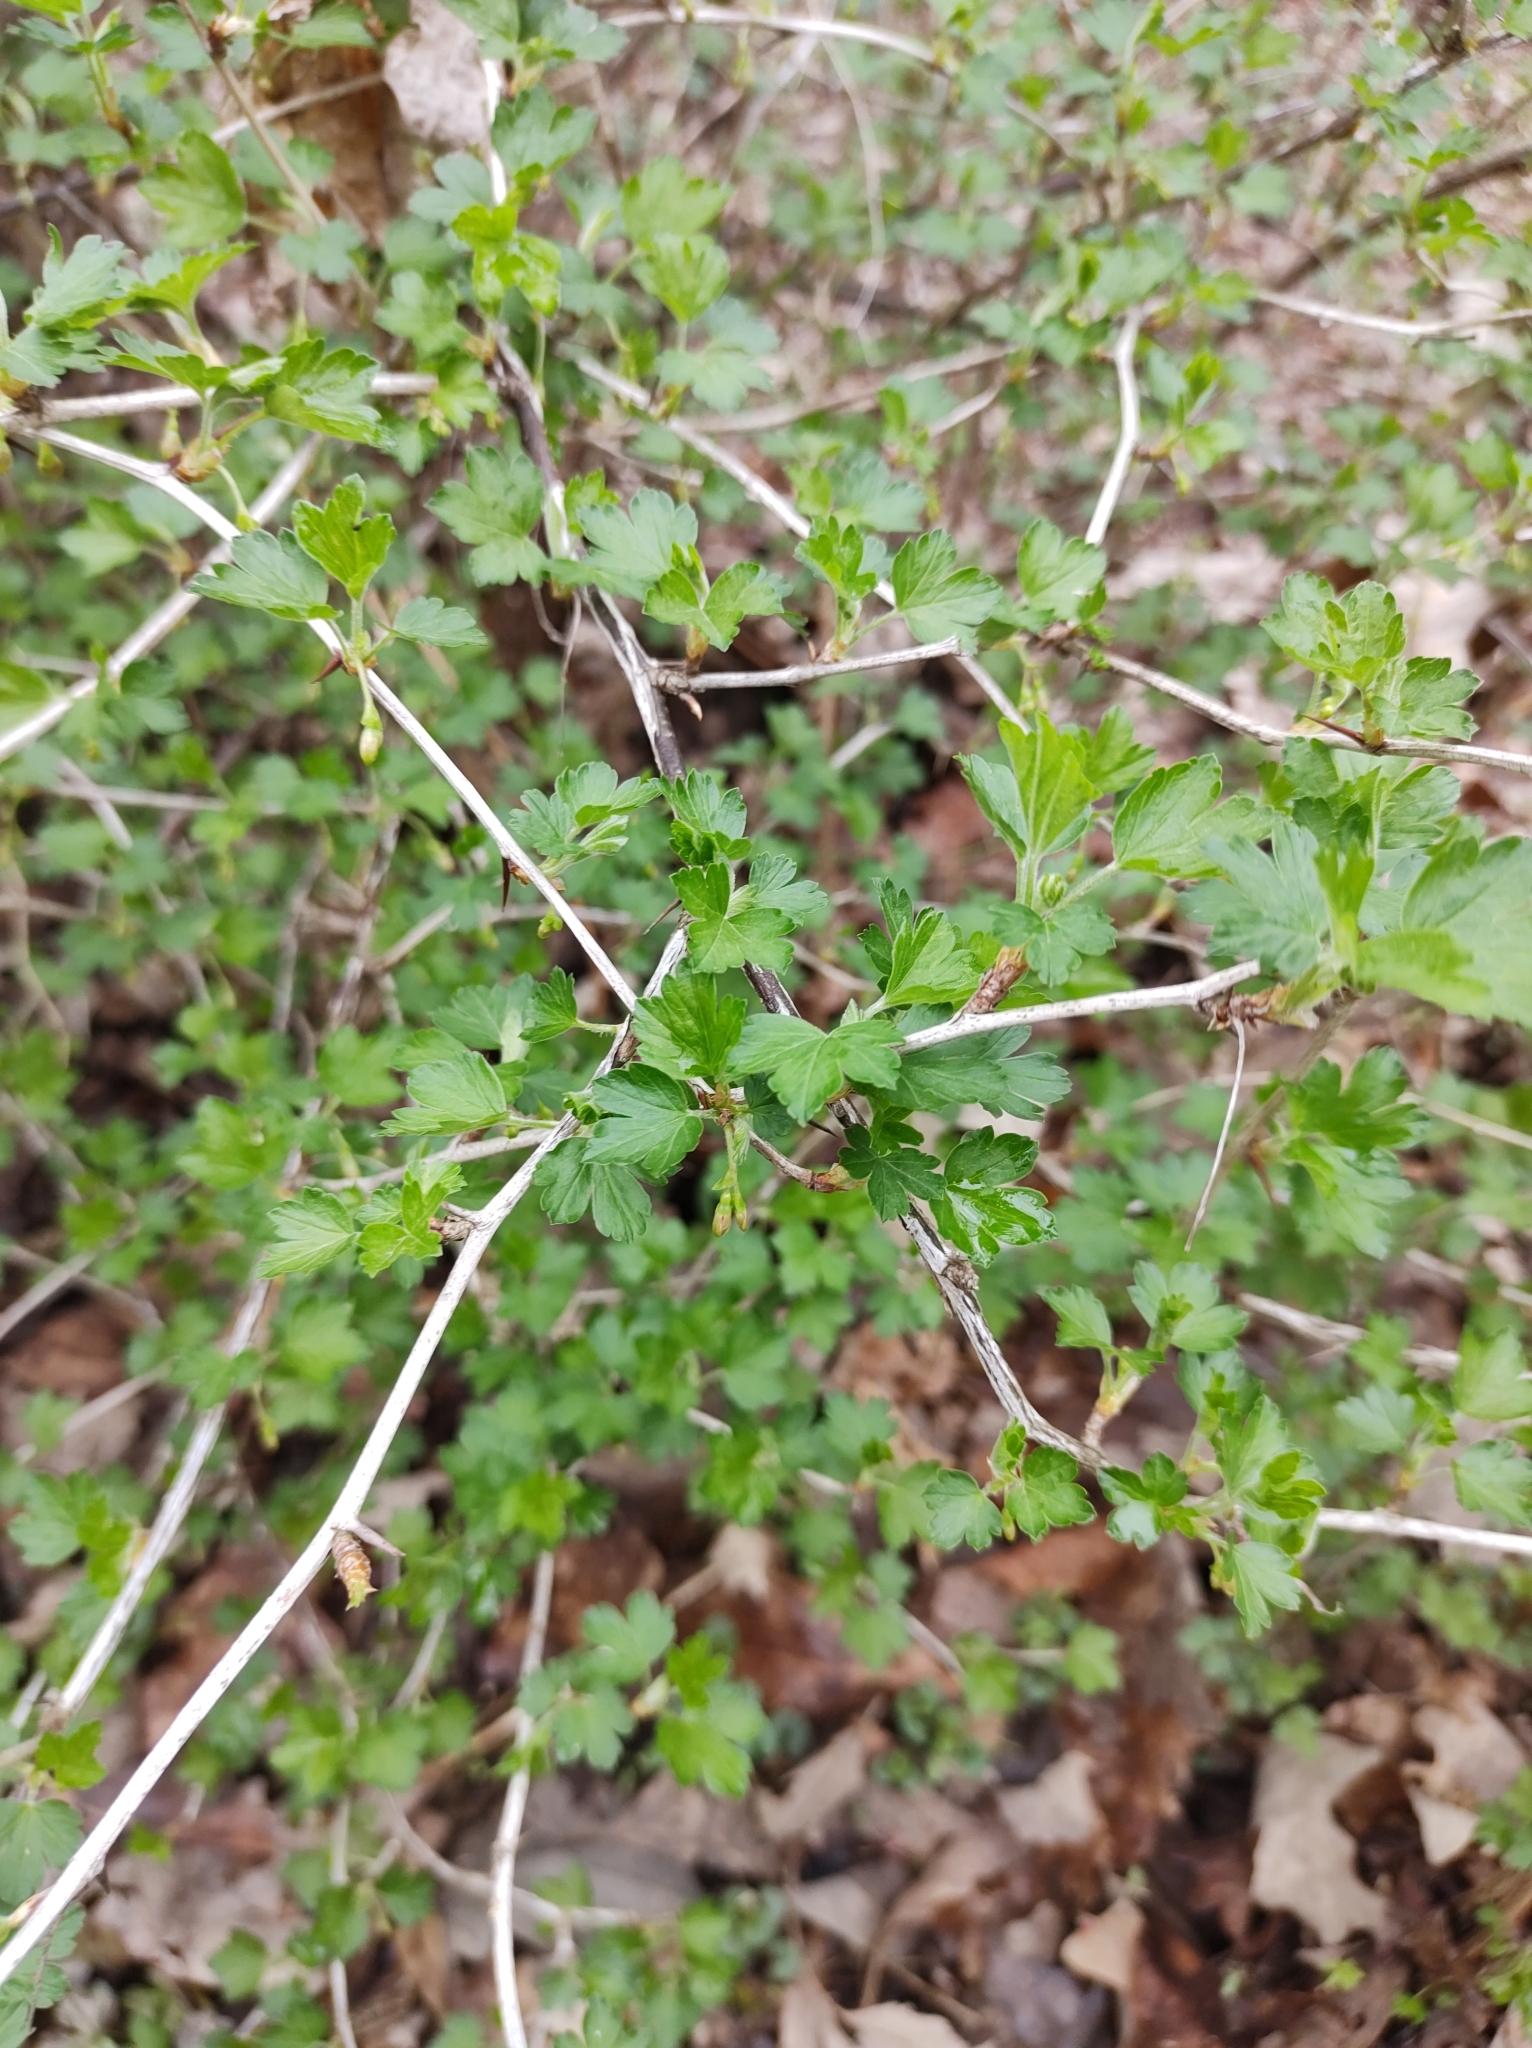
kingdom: Plantae
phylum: Tracheophyta
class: Magnoliopsida
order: Saxifragales
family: Grossulariaceae
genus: Ribes
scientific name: Ribes missouriense
